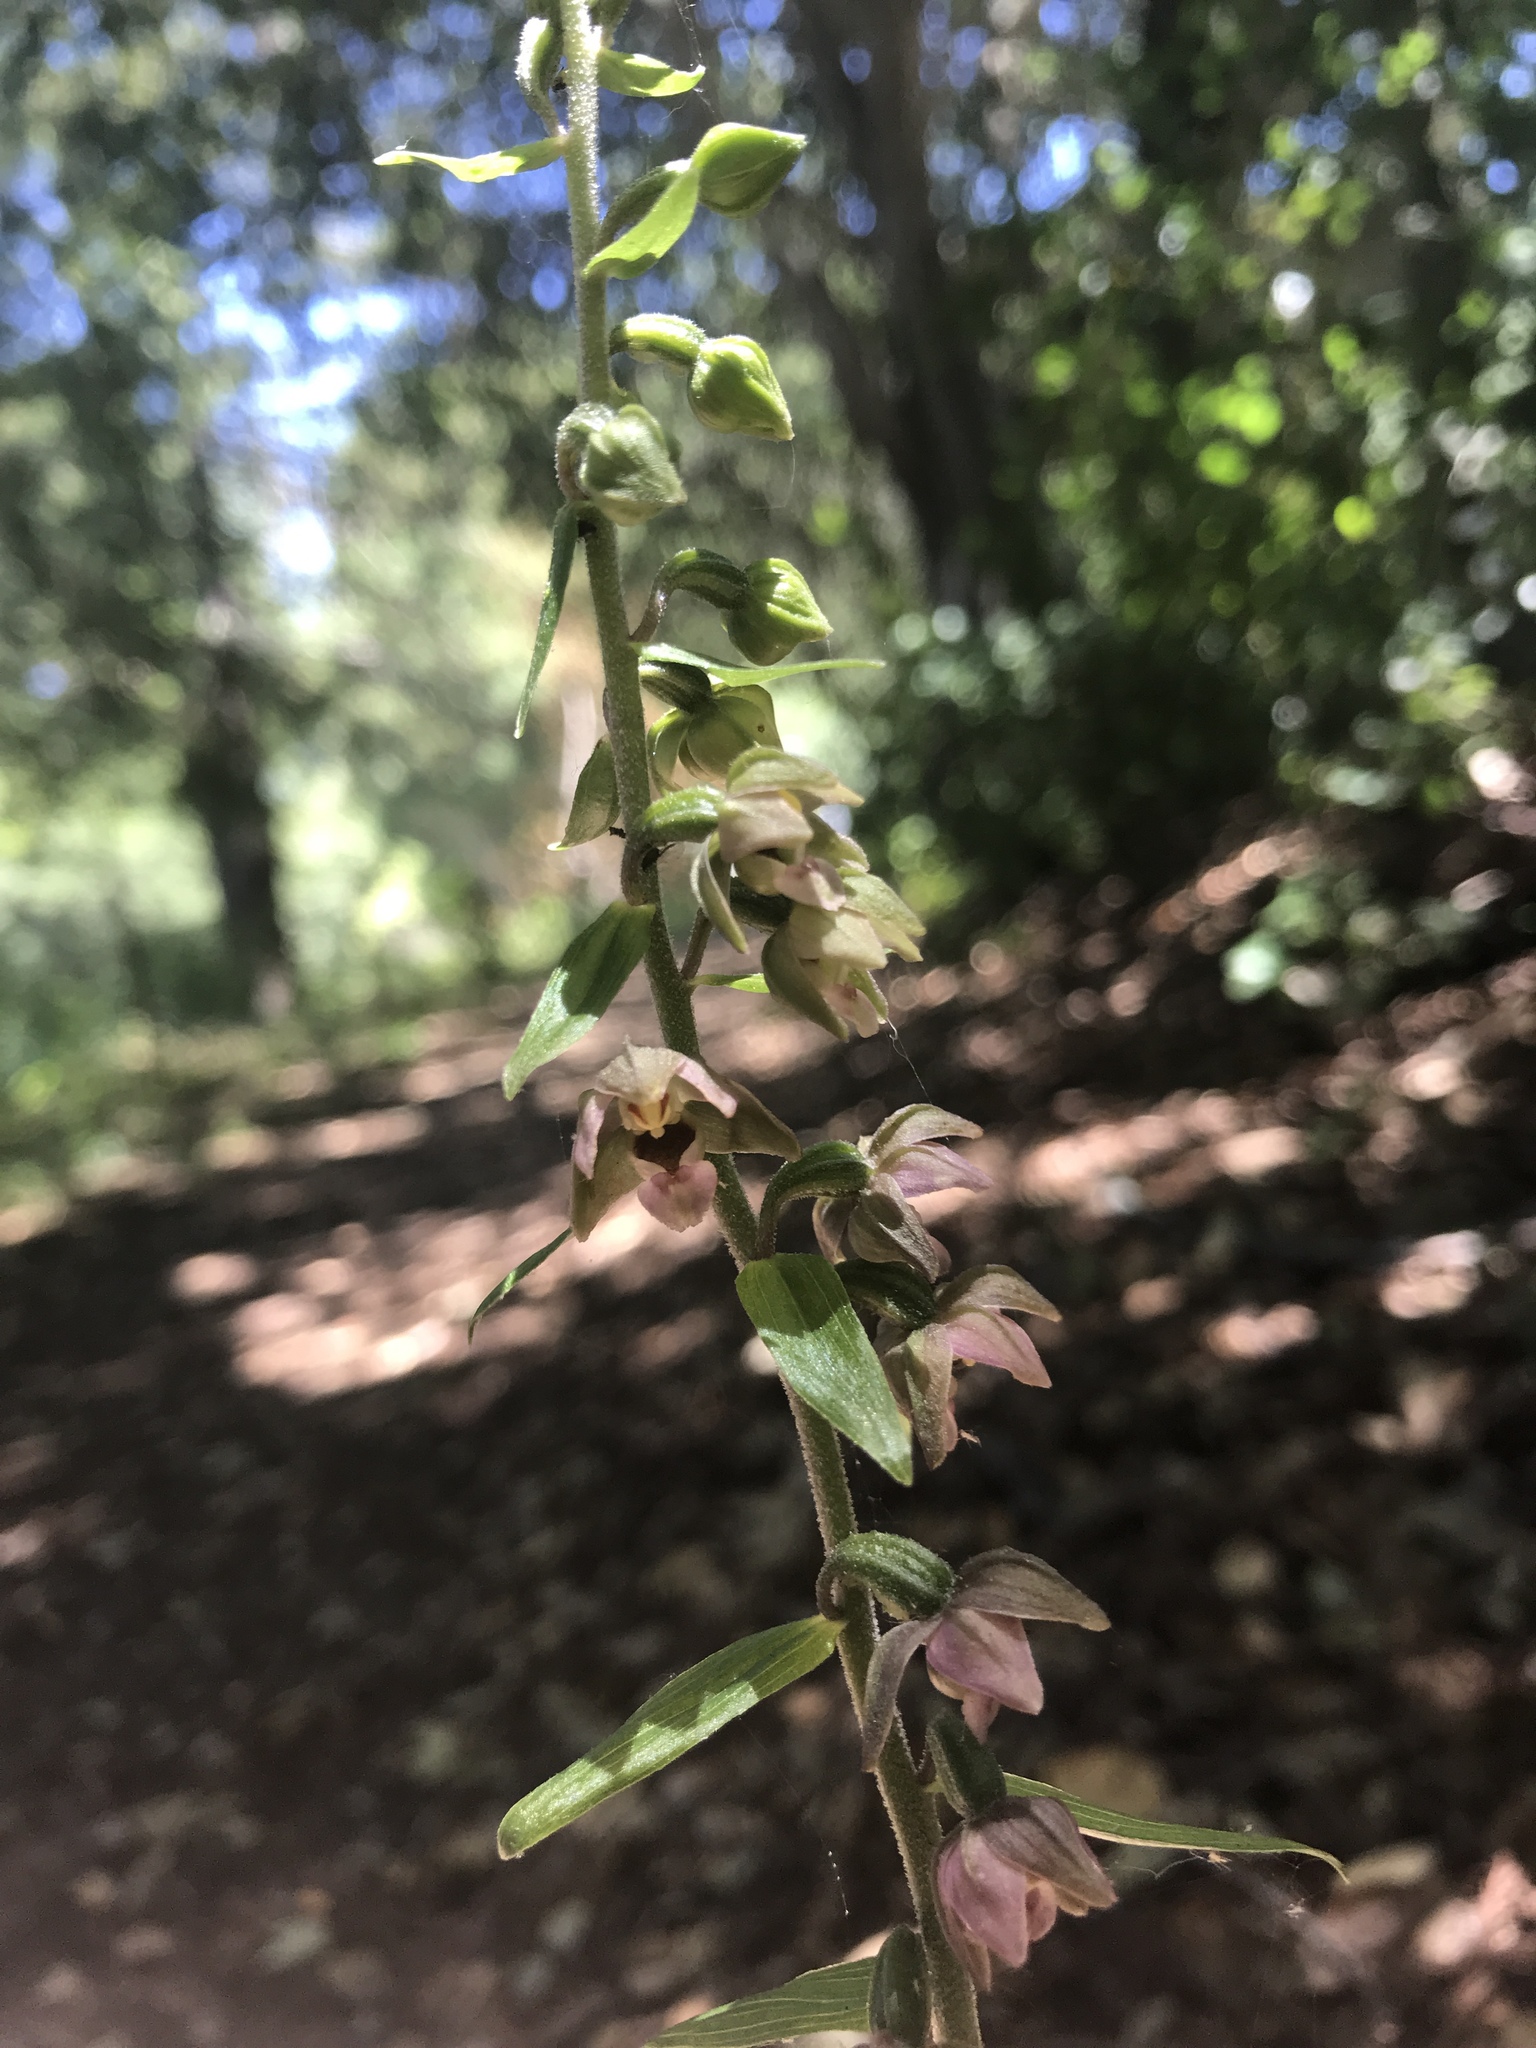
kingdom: Plantae
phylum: Tracheophyta
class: Liliopsida
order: Asparagales
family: Orchidaceae
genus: Epipactis
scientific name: Epipactis helleborine
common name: Broad-leaved helleborine
